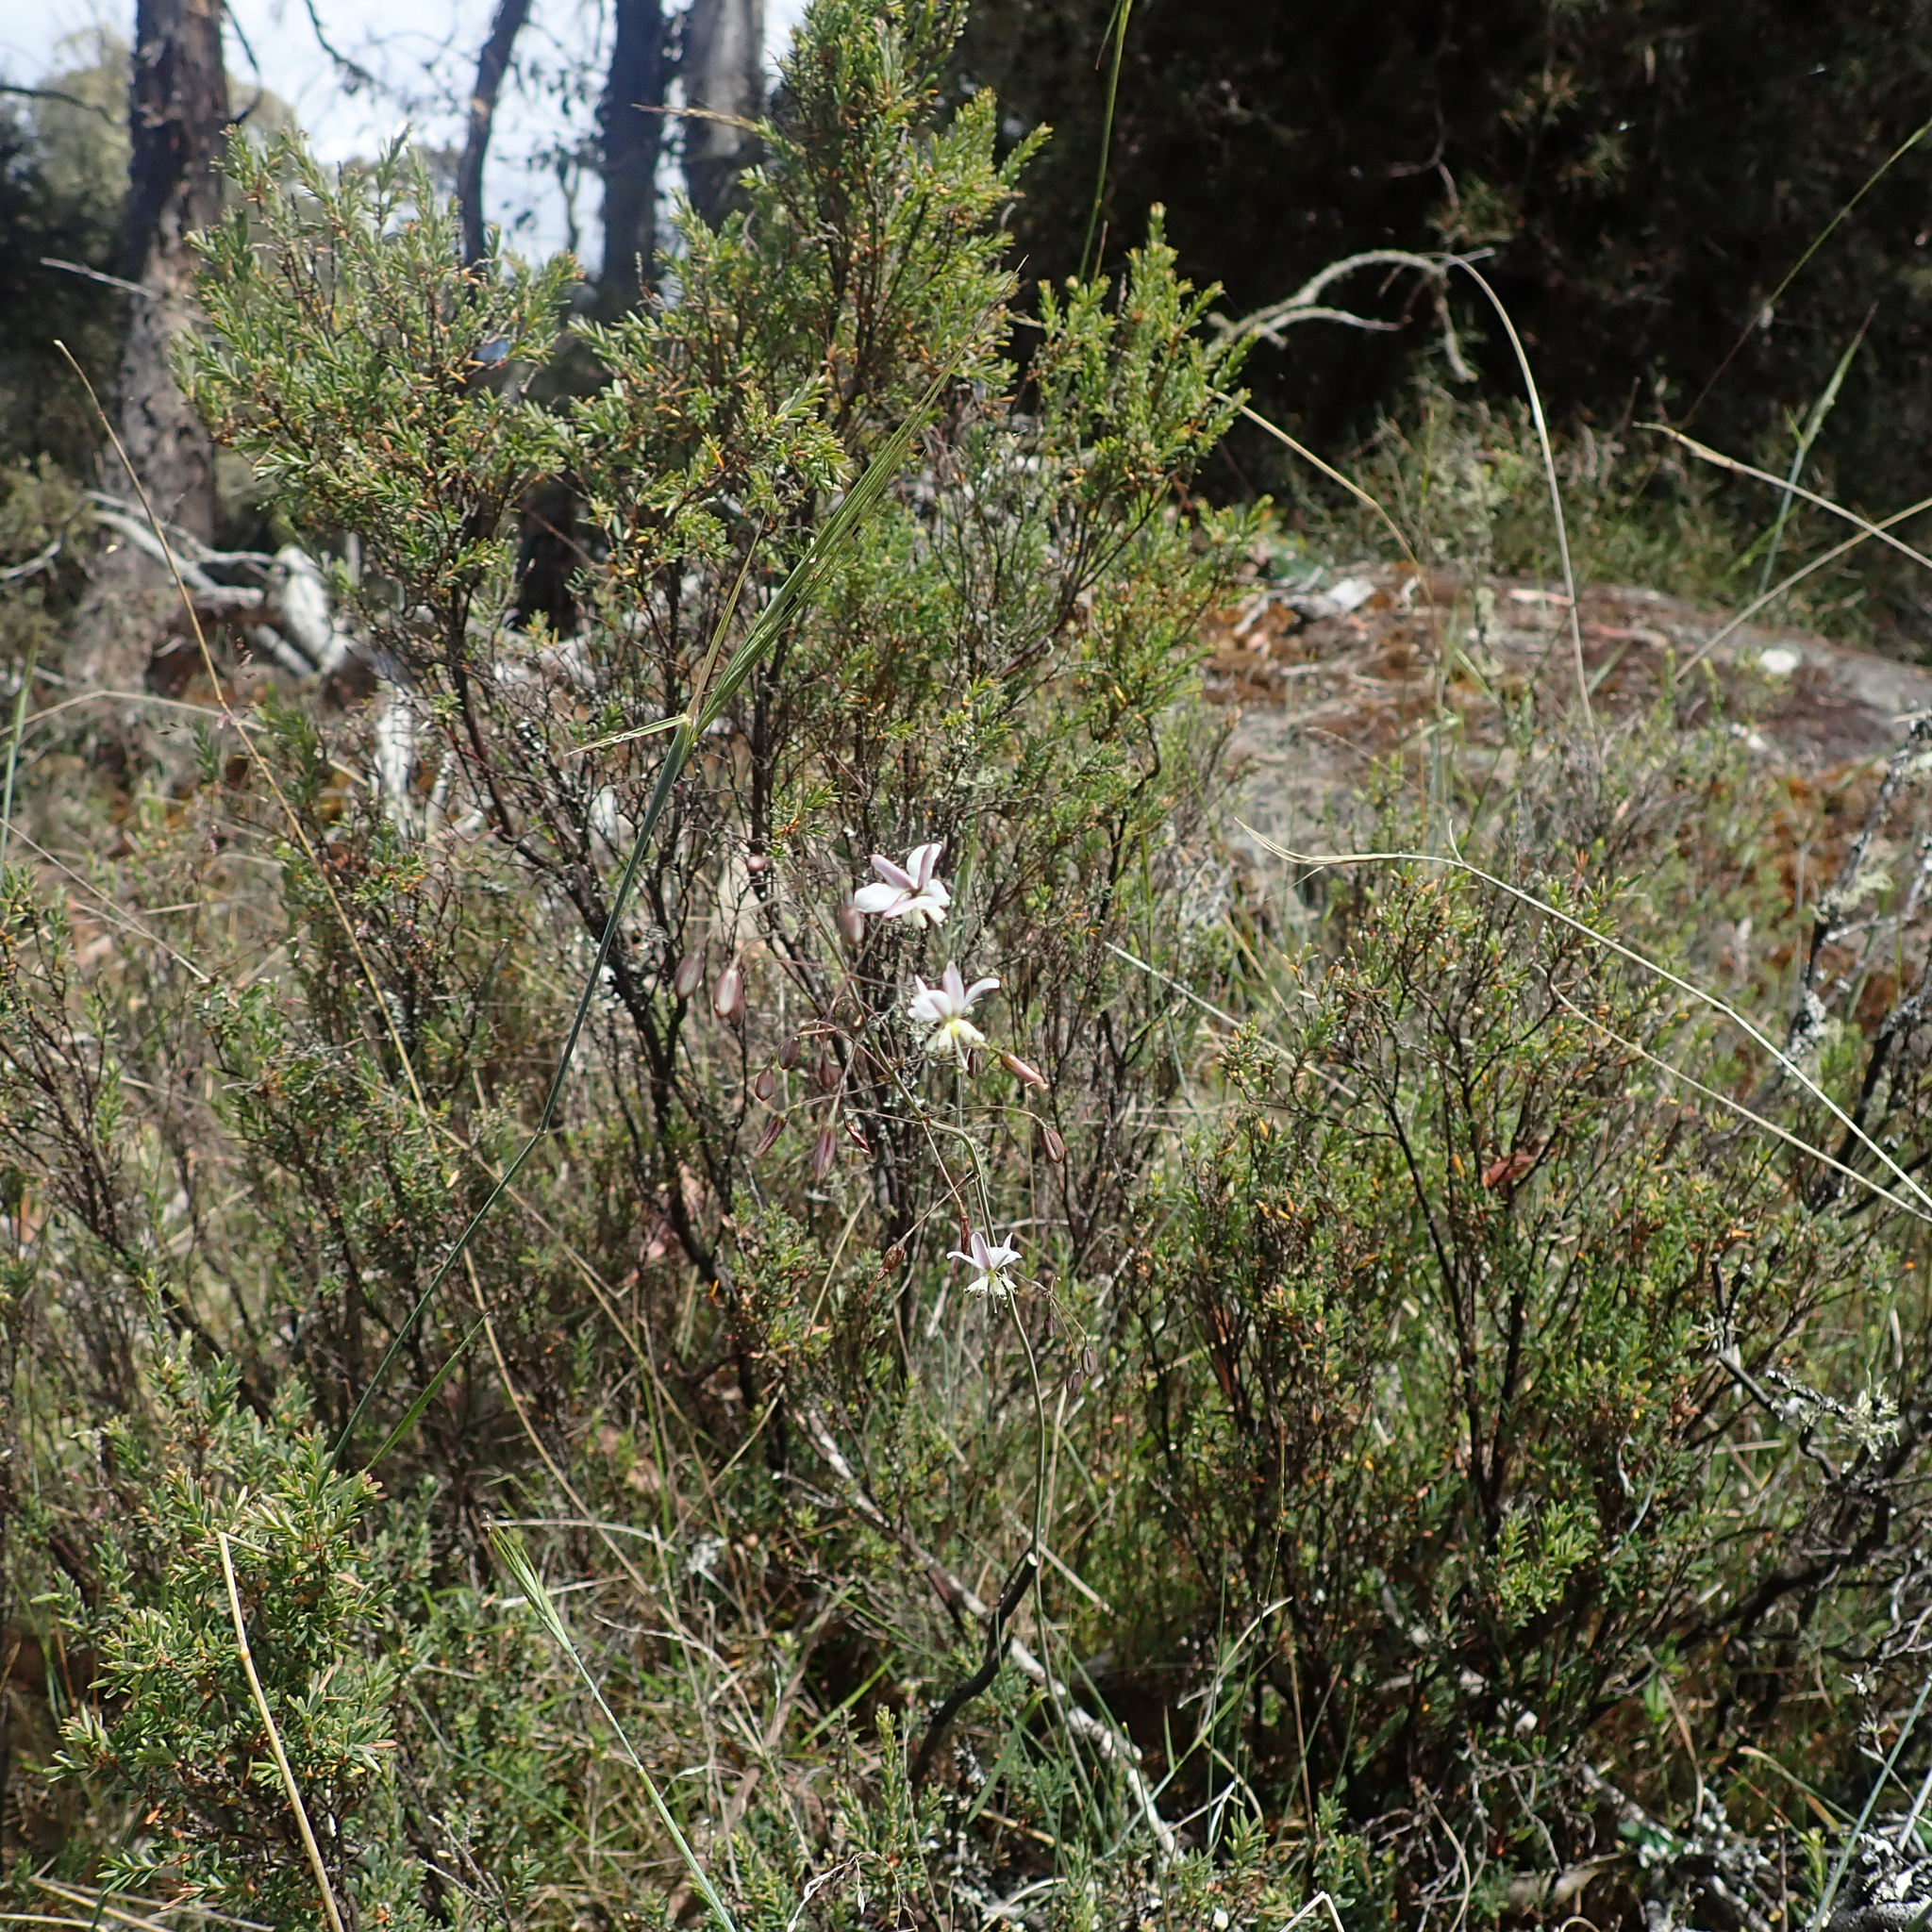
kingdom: Plantae
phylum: Tracheophyta
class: Liliopsida
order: Asparagales
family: Asparagaceae
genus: Arthropodium
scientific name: Arthropodium milleflorum
